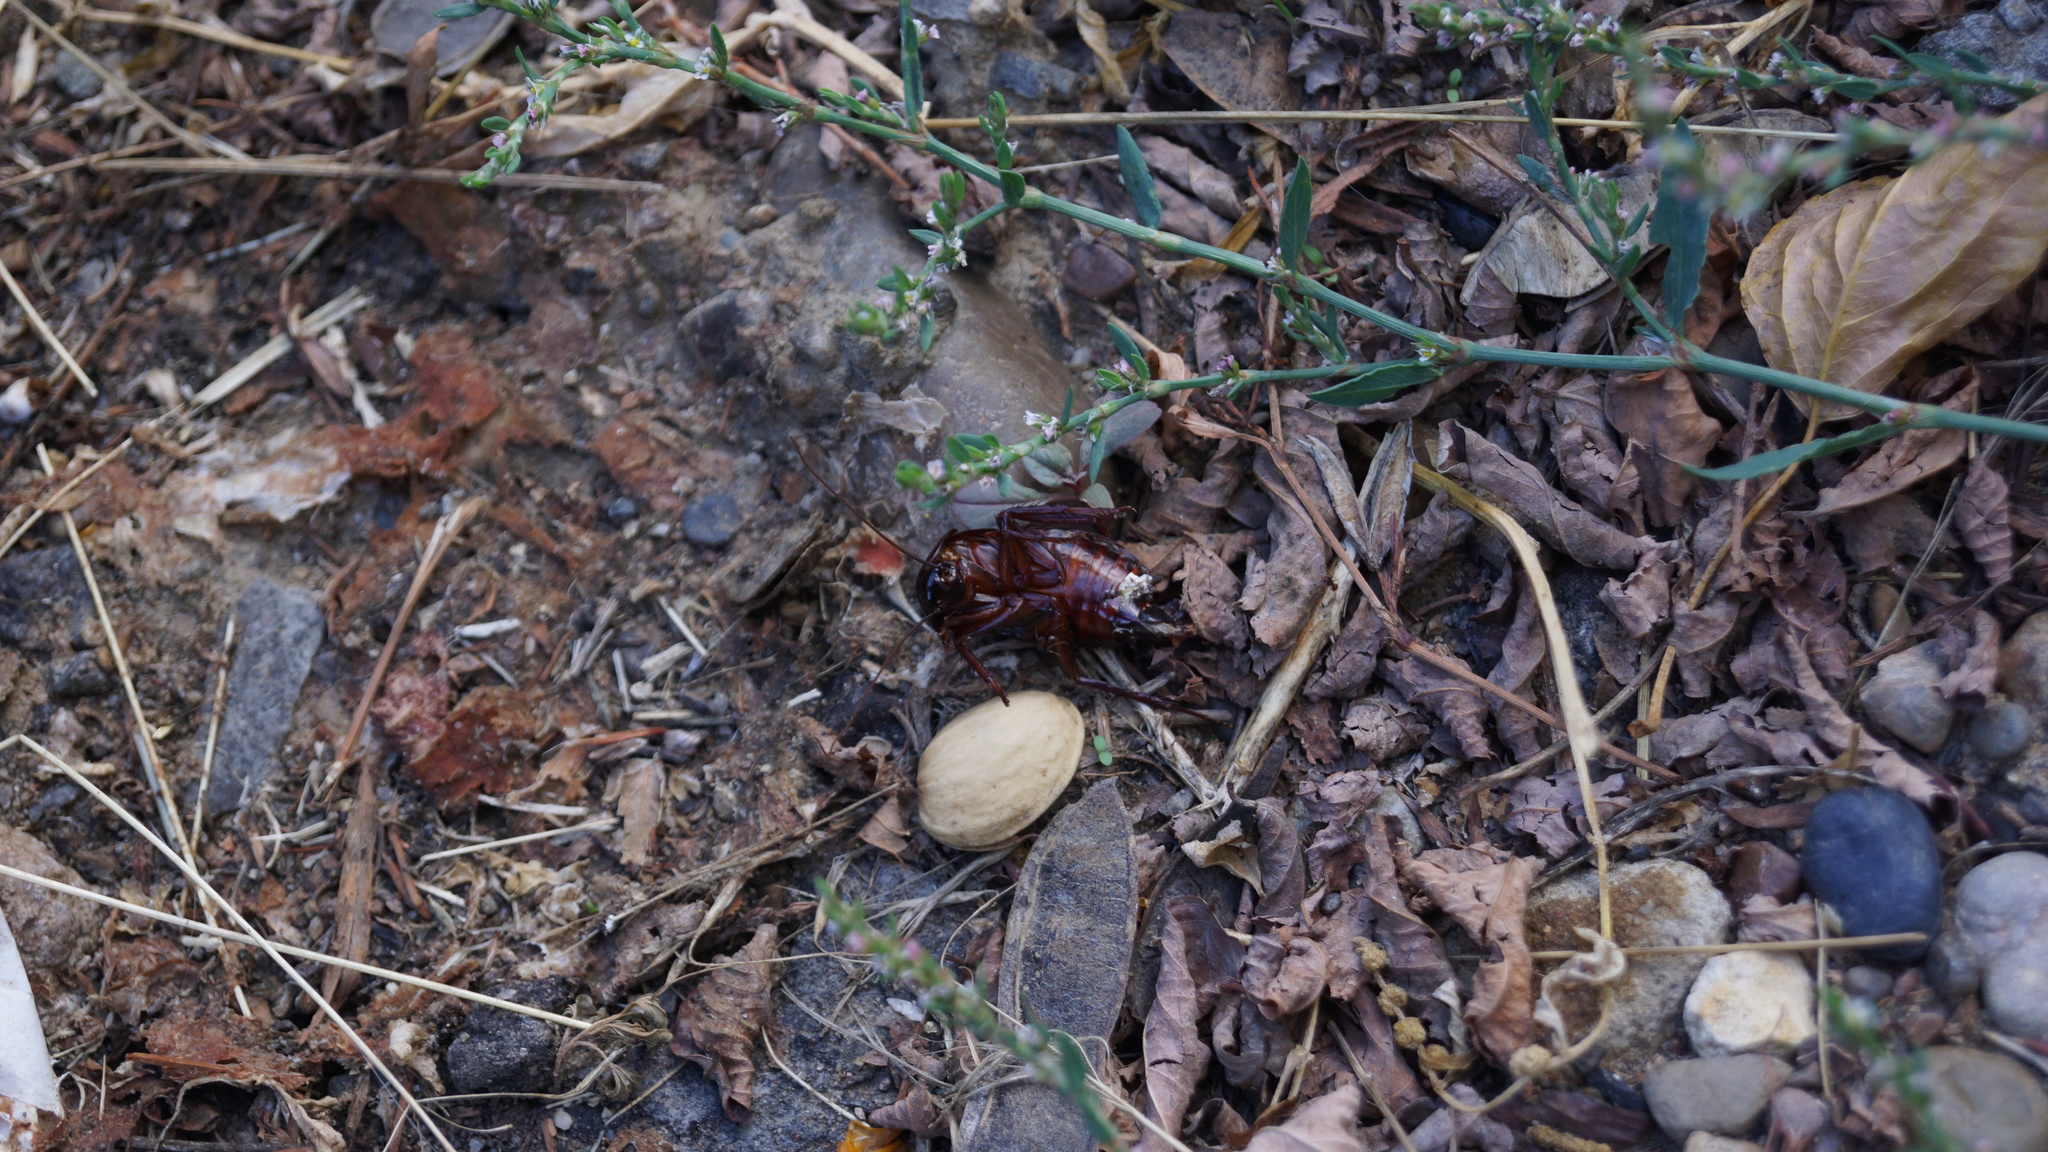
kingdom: Animalia
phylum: Arthropoda
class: Insecta
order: Blattodea
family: Blattidae
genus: Blatta
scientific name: Blatta orientalis
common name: Oriental cockroach
